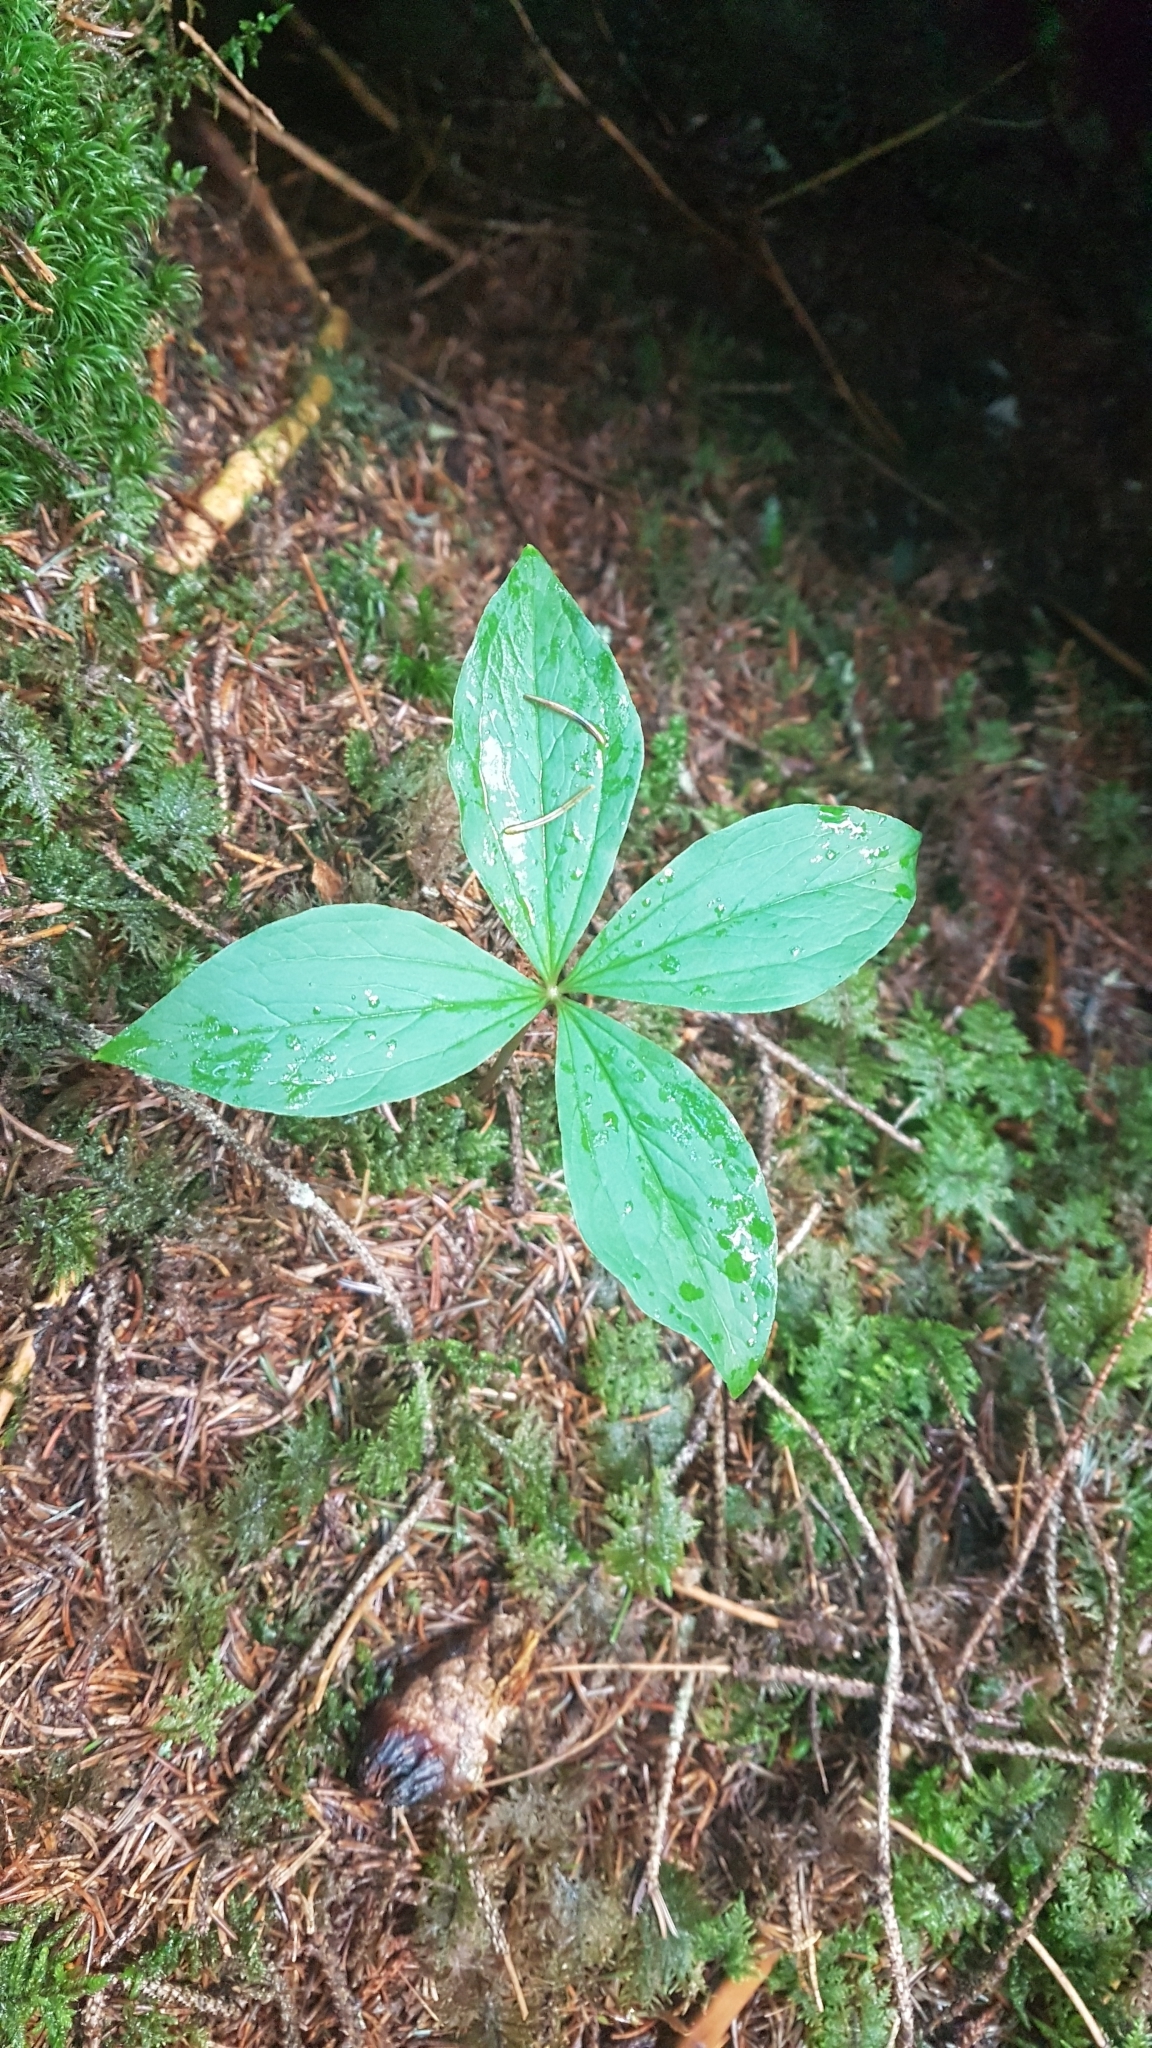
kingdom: Plantae
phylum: Tracheophyta
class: Liliopsida
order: Liliales
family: Melanthiaceae
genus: Paris
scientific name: Paris quadrifolia
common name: Herb-paris
